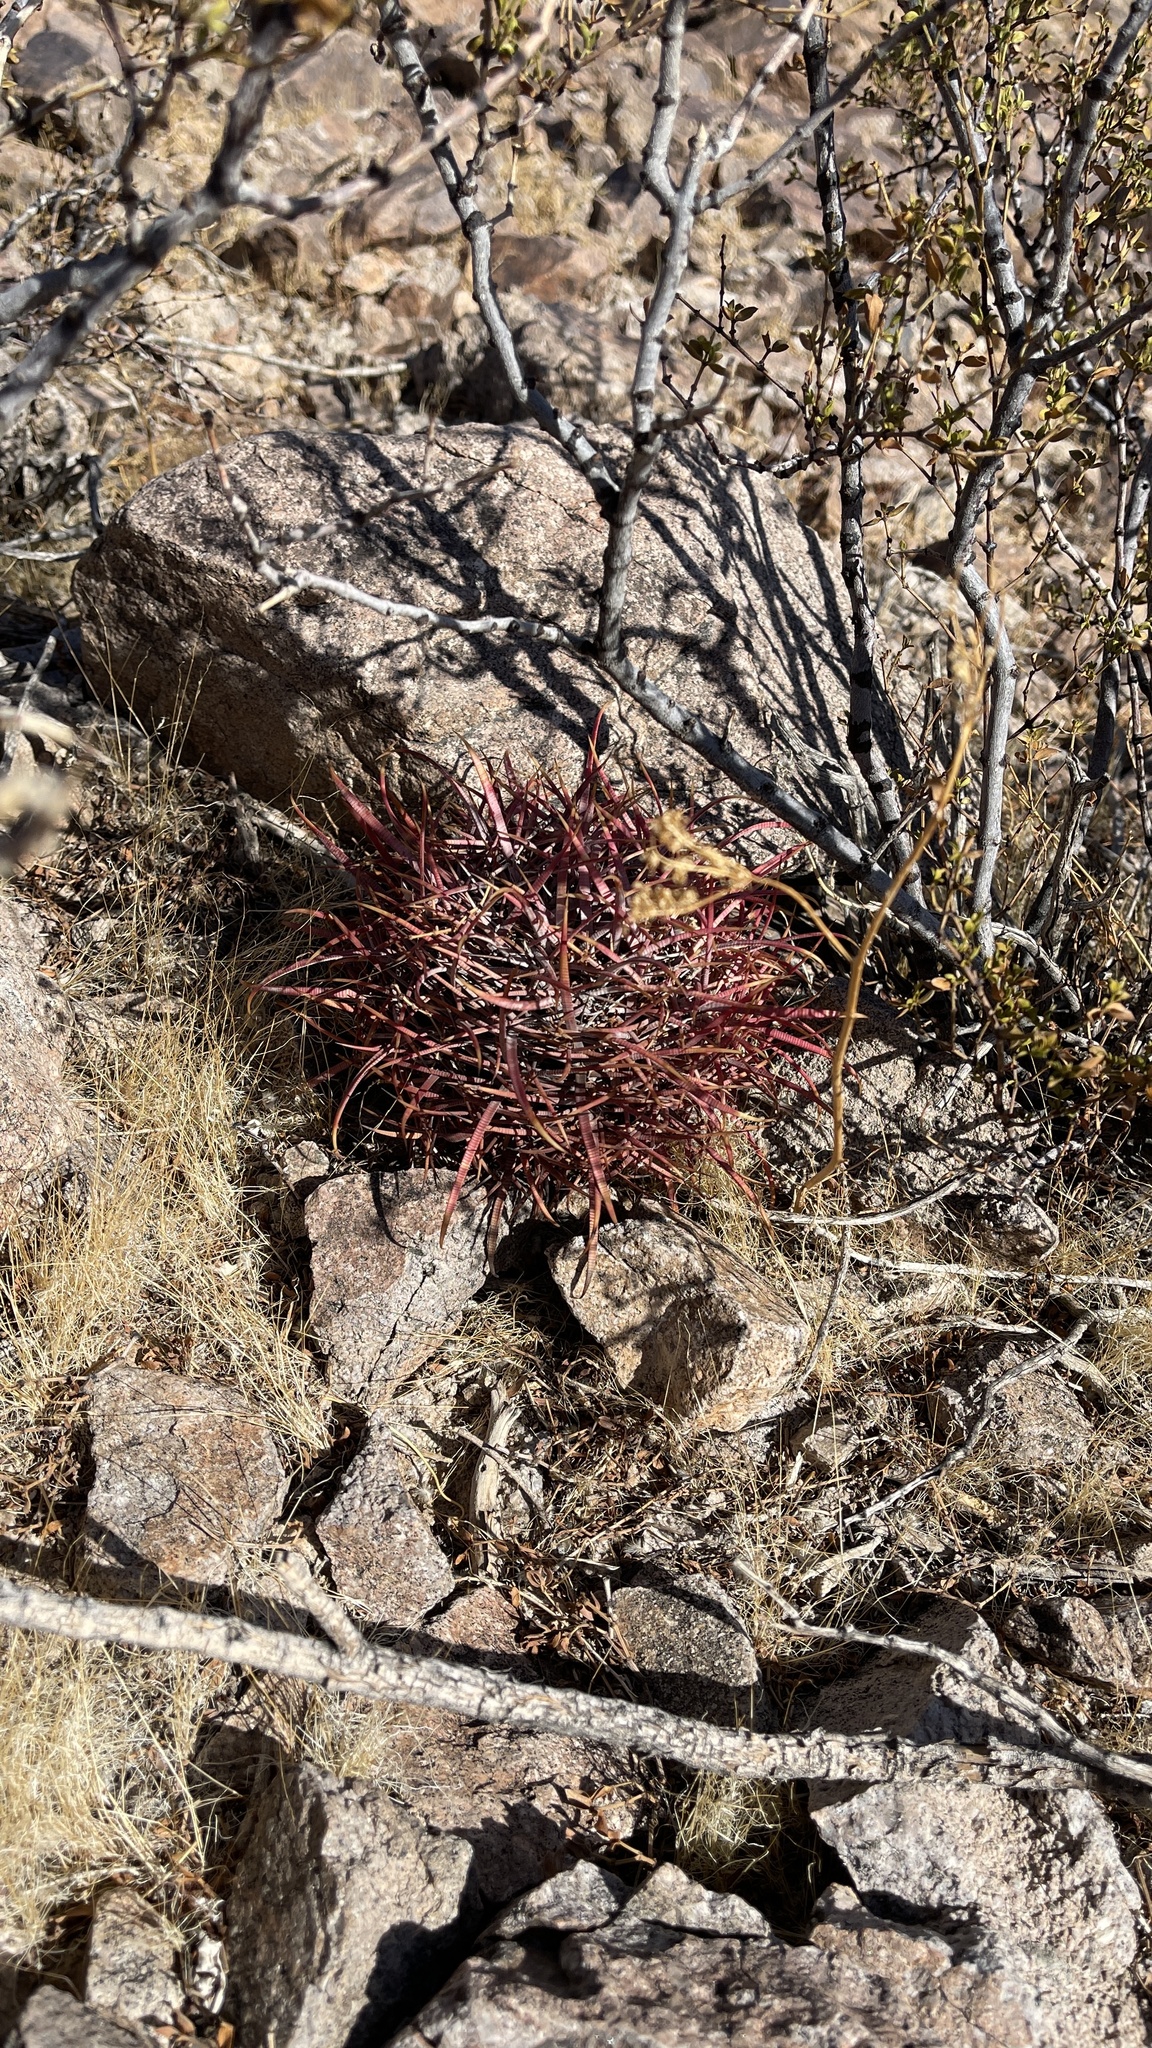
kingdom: Plantae
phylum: Tracheophyta
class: Magnoliopsida
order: Caryophyllales
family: Cactaceae
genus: Ferocactus
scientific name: Ferocactus cylindraceus
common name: California barrel cactus
